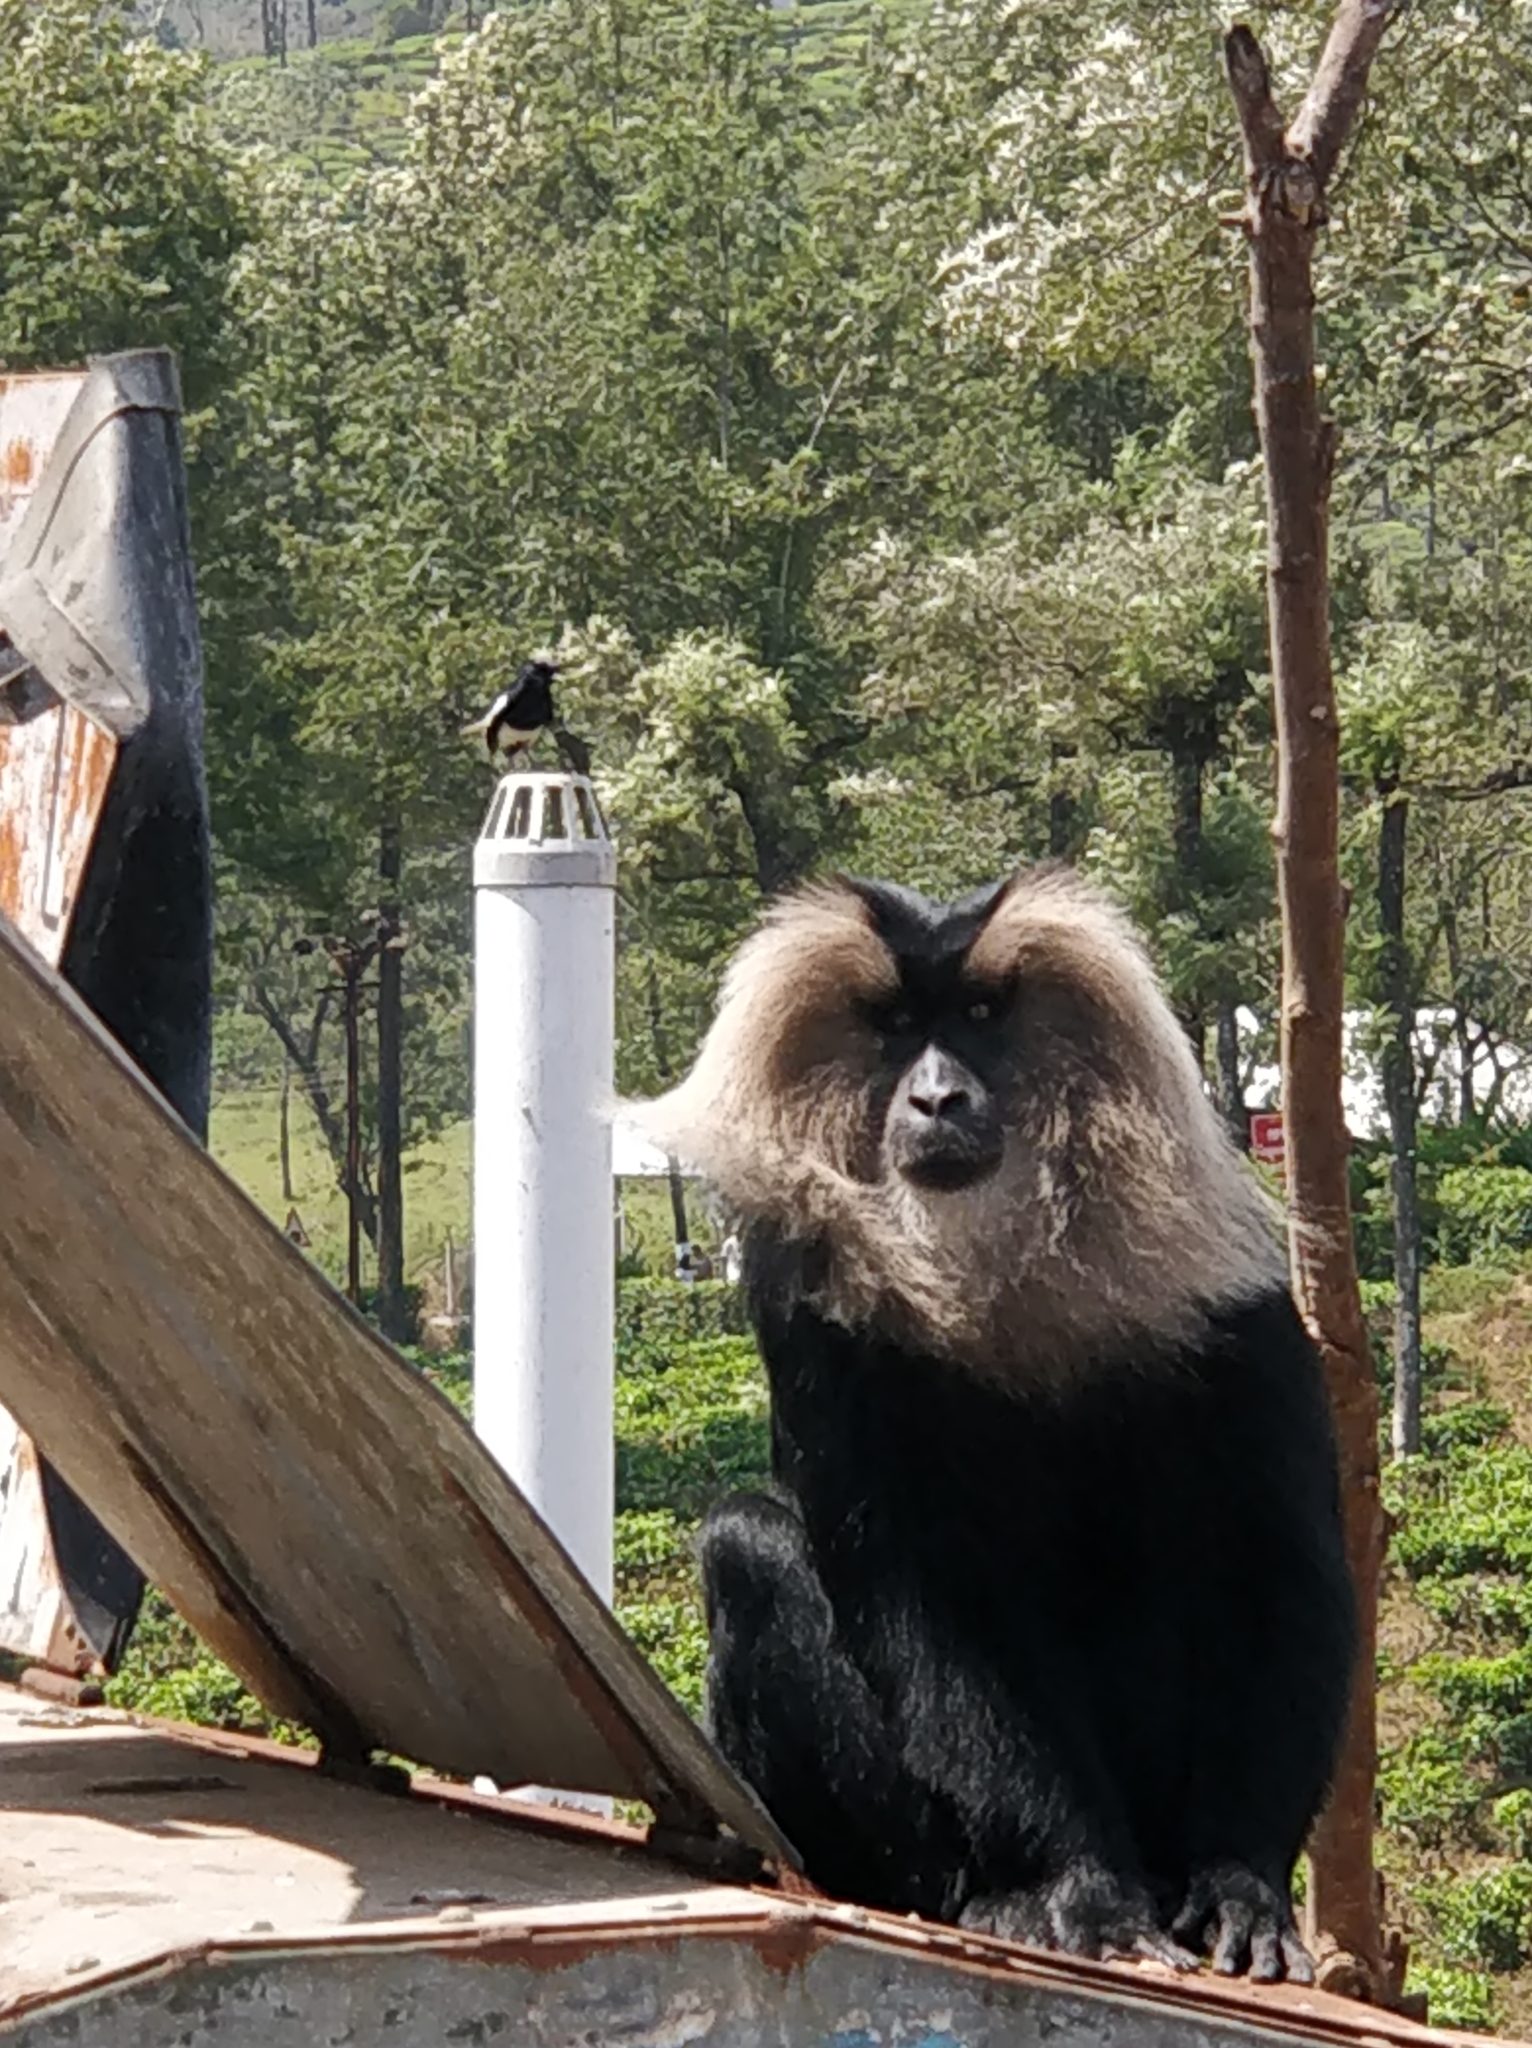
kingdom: Animalia
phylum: Chordata
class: Mammalia
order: Primates
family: Cercopithecidae
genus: Macaca
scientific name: Macaca silenus
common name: Lion-tailed macaque
